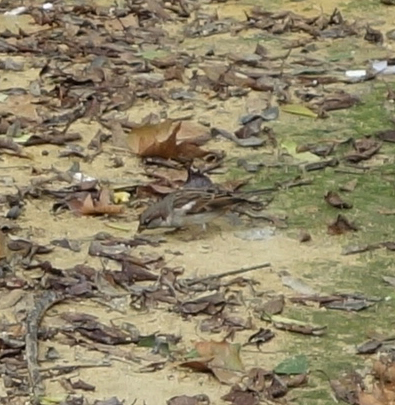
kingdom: Animalia
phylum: Chordata
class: Aves
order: Passeriformes
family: Passeridae
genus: Passer
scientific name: Passer domesticus
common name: House sparrow
